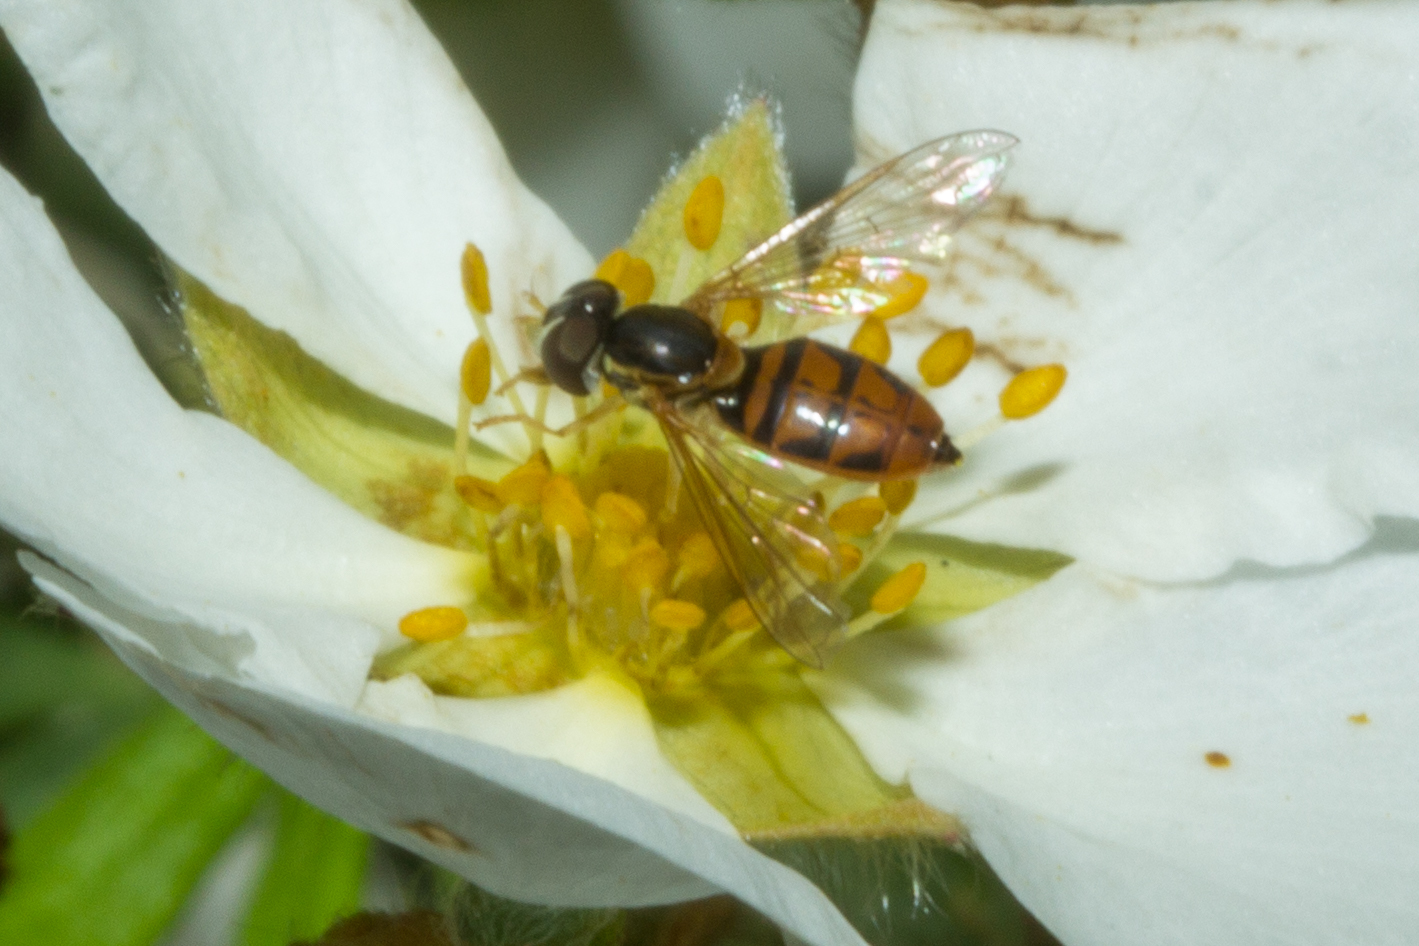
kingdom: Animalia
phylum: Arthropoda
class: Insecta
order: Diptera
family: Syrphidae
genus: Toxomerus
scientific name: Toxomerus marginatus
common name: Syrphid fly
